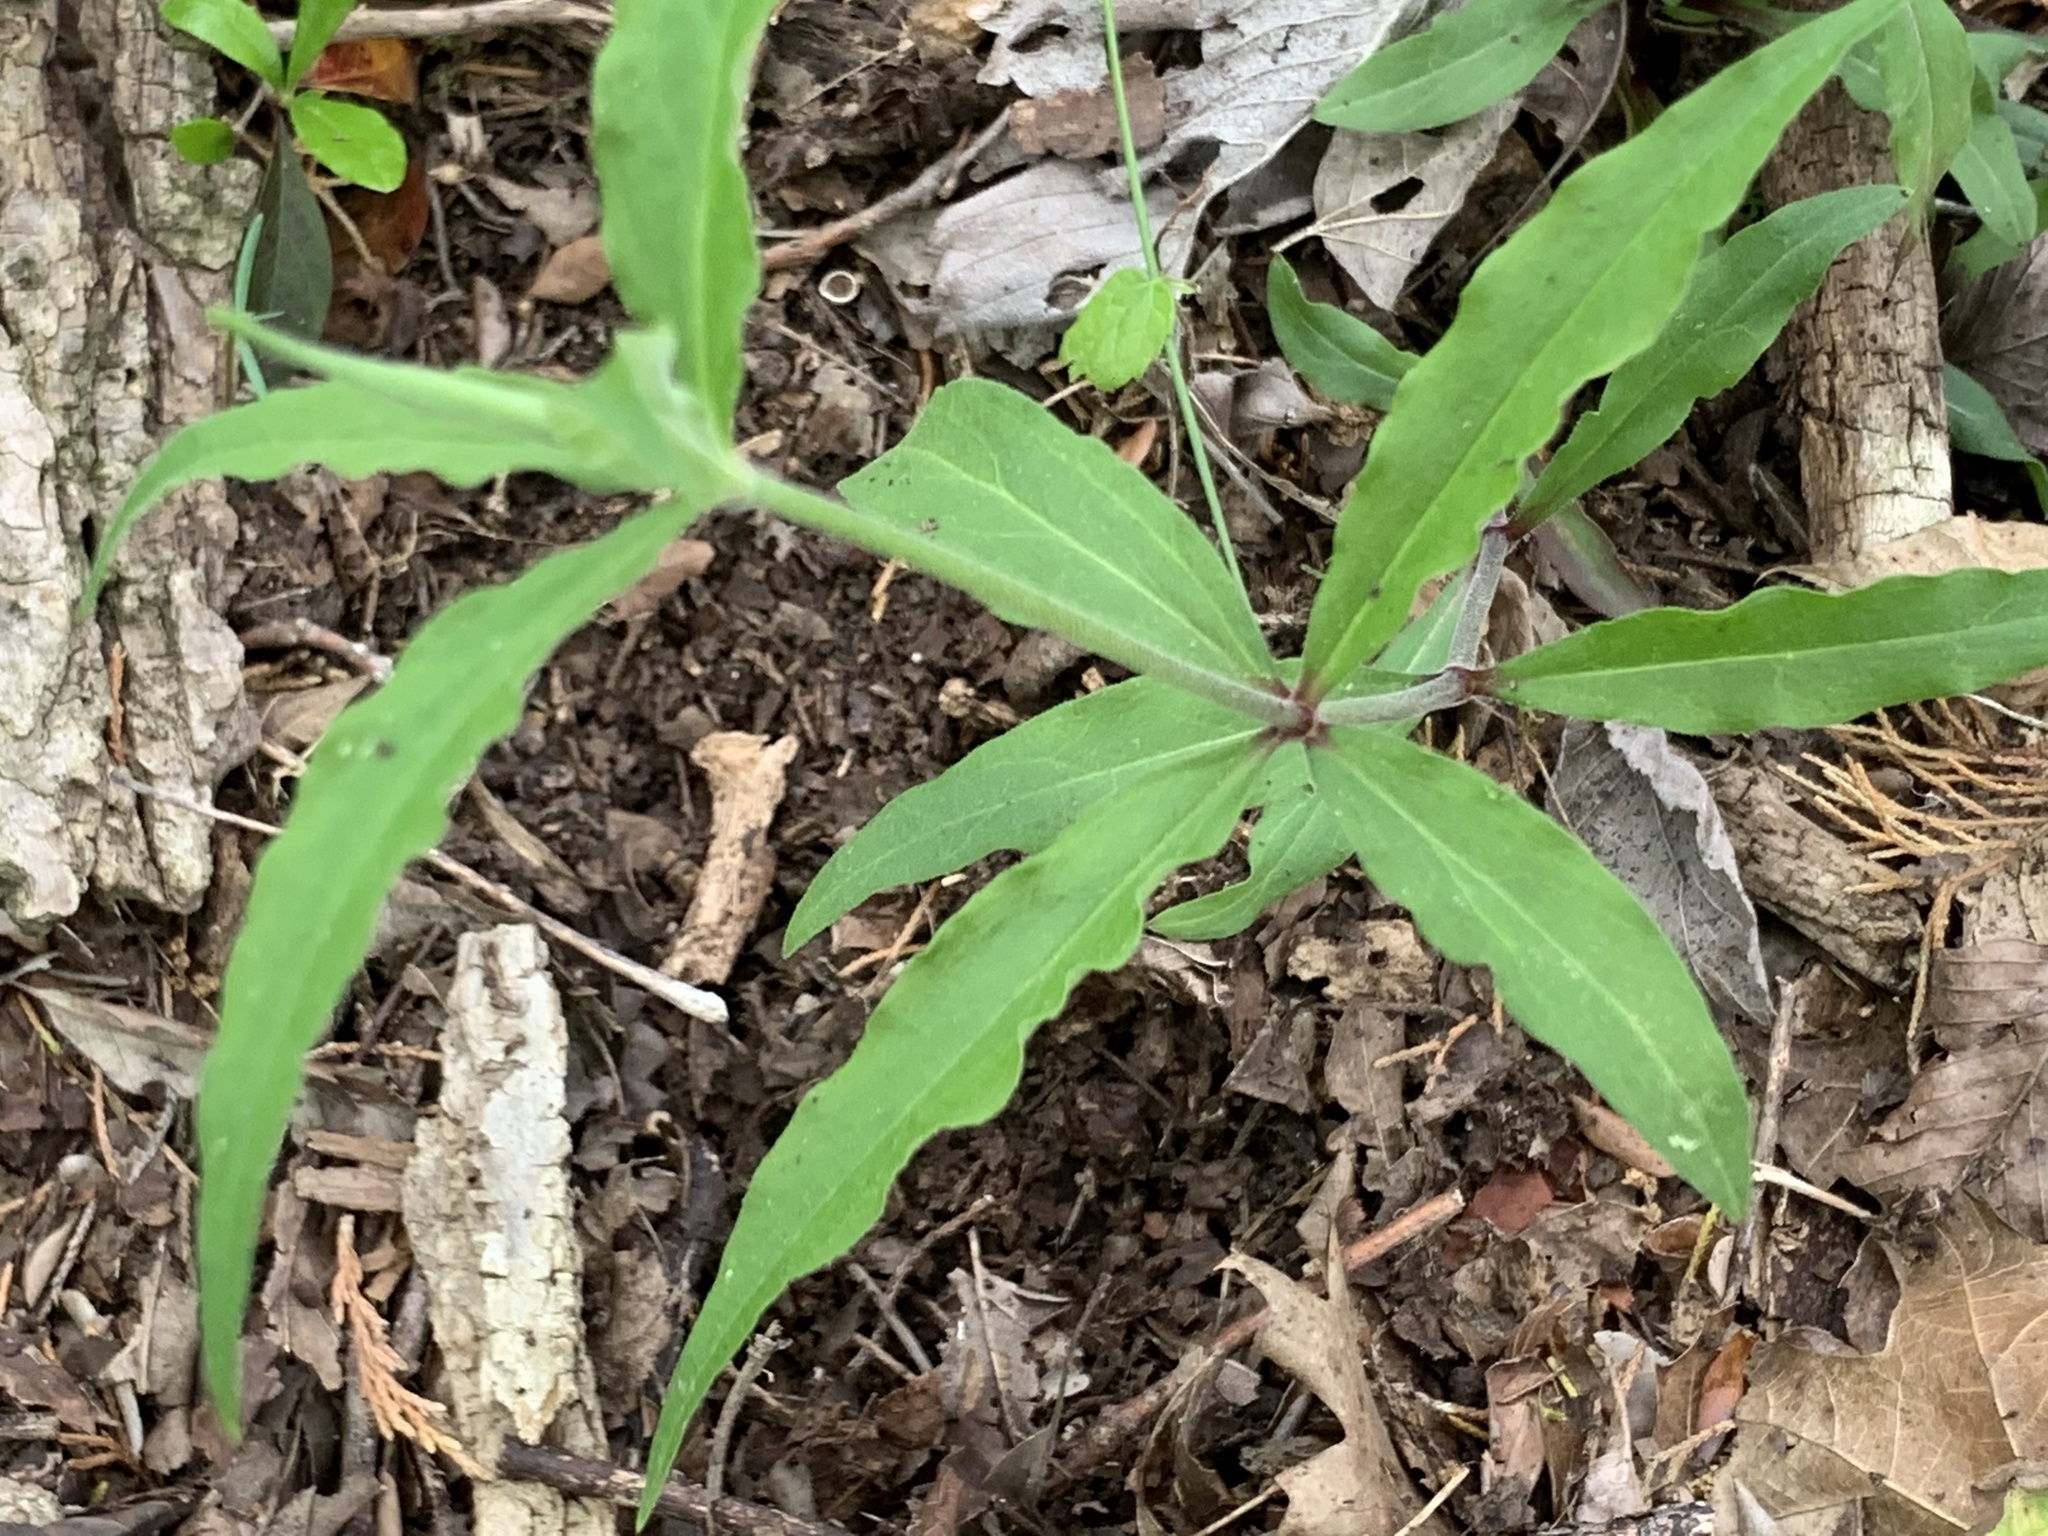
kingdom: Plantae
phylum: Tracheophyta
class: Magnoliopsida
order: Caryophyllales
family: Caryophyllaceae
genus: Silene
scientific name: Silene stellata
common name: Starry campion
